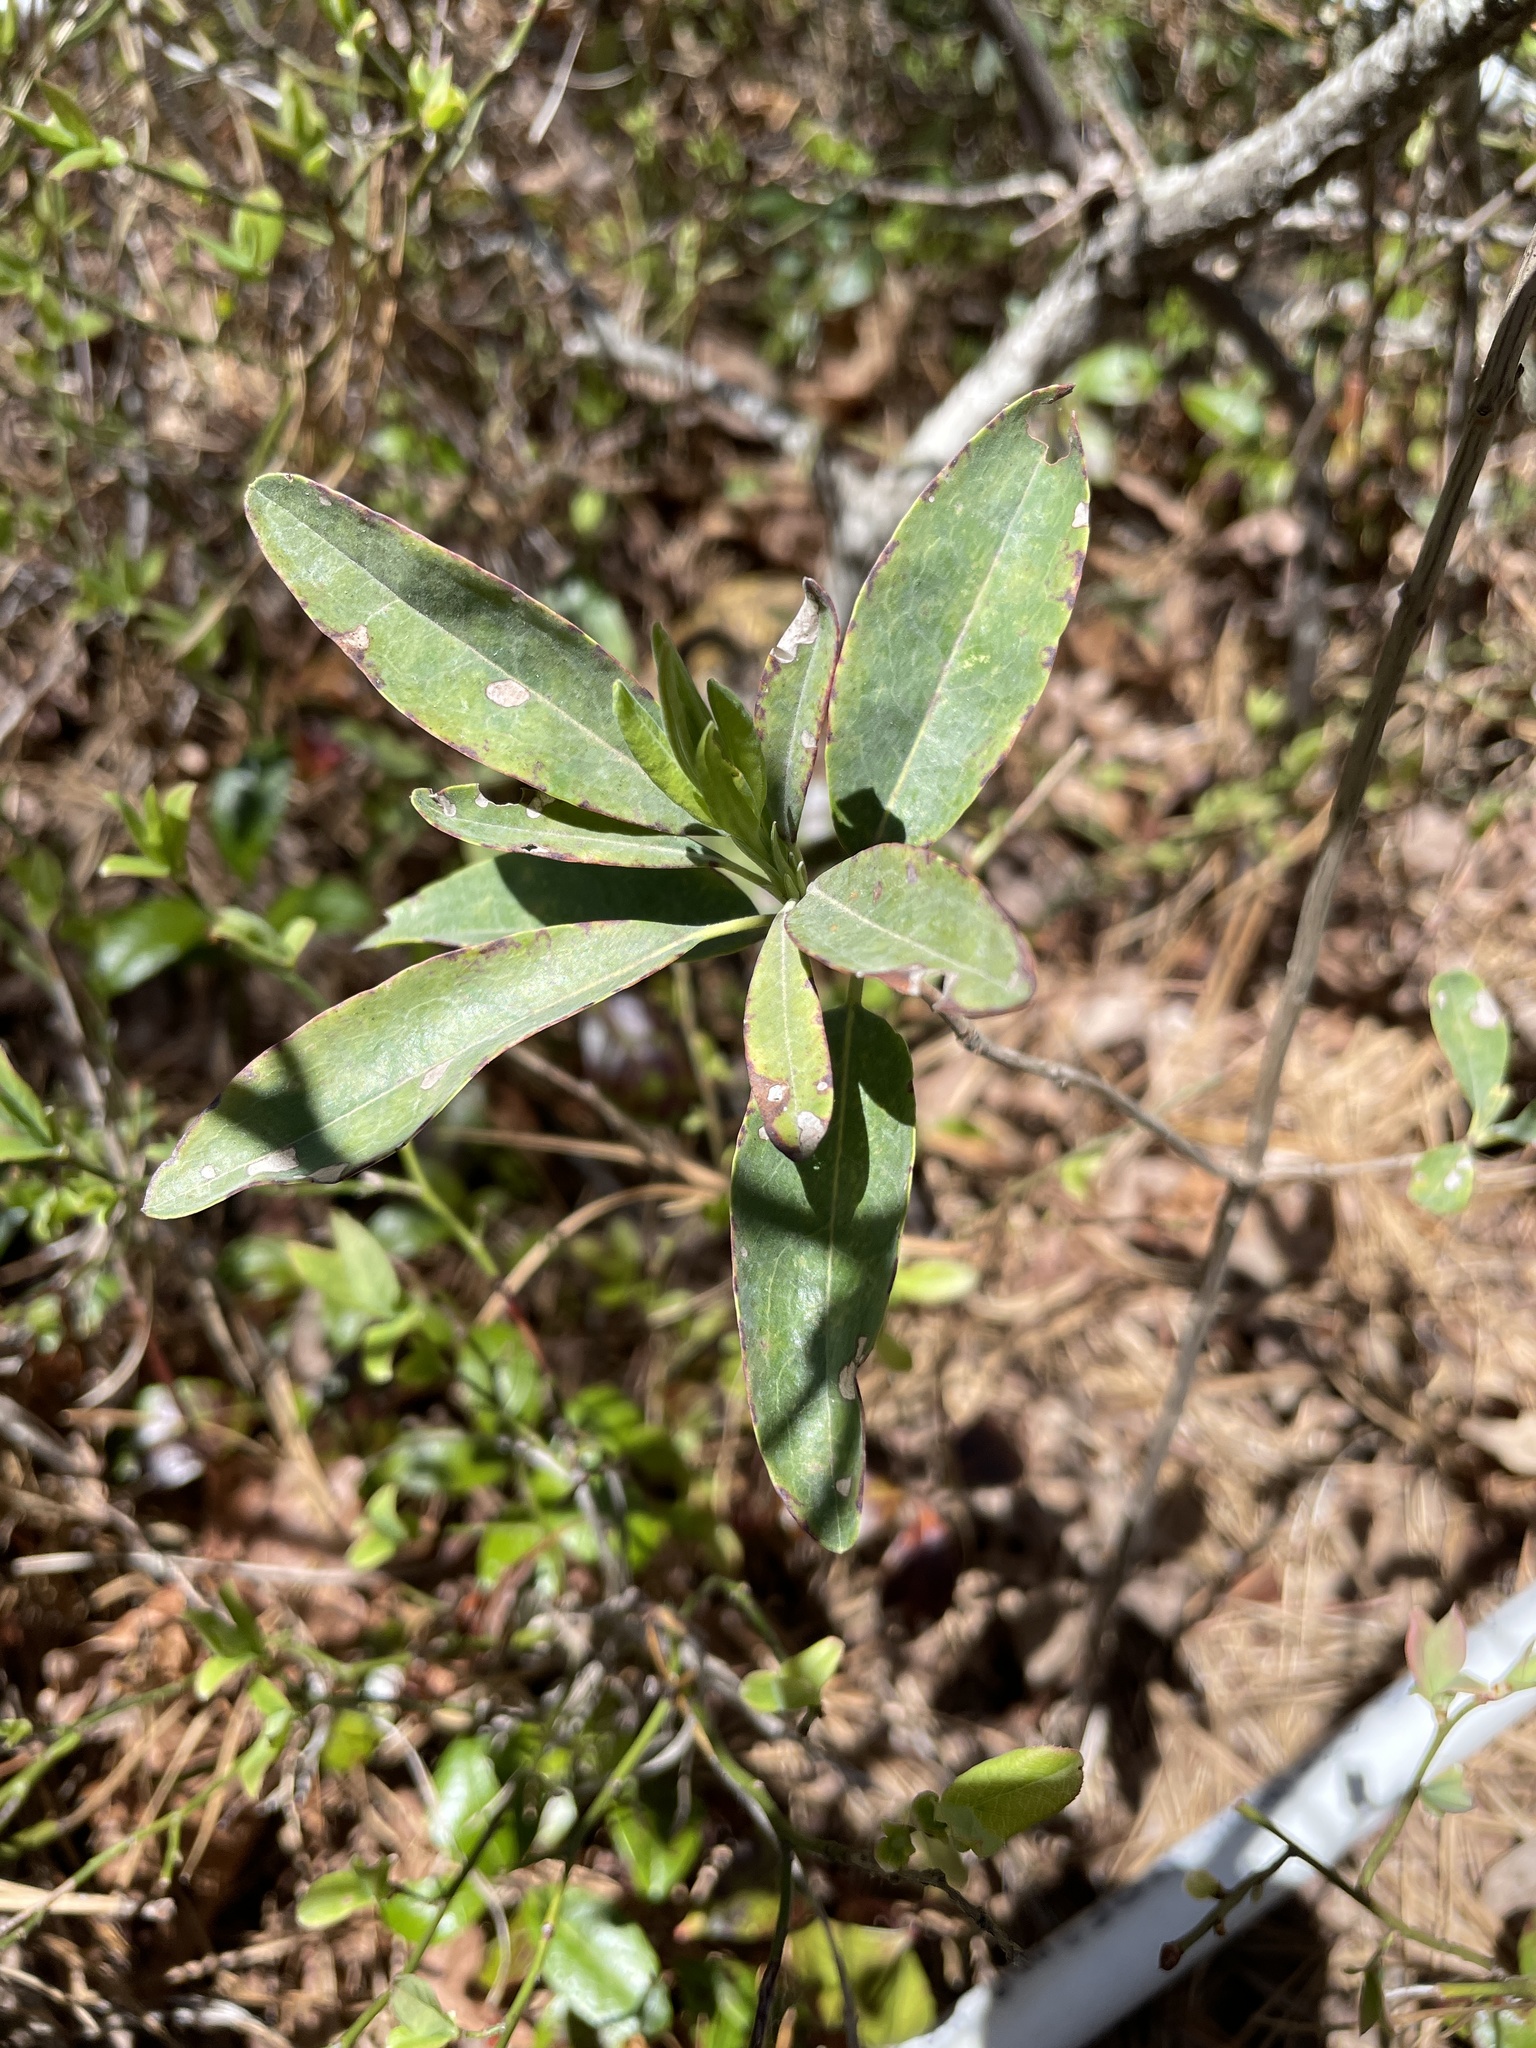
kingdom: Plantae
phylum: Tracheophyta
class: Magnoliopsida
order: Ericales
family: Ericaceae
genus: Kalmia
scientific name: Kalmia angustifolia
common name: Sheep-laurel
